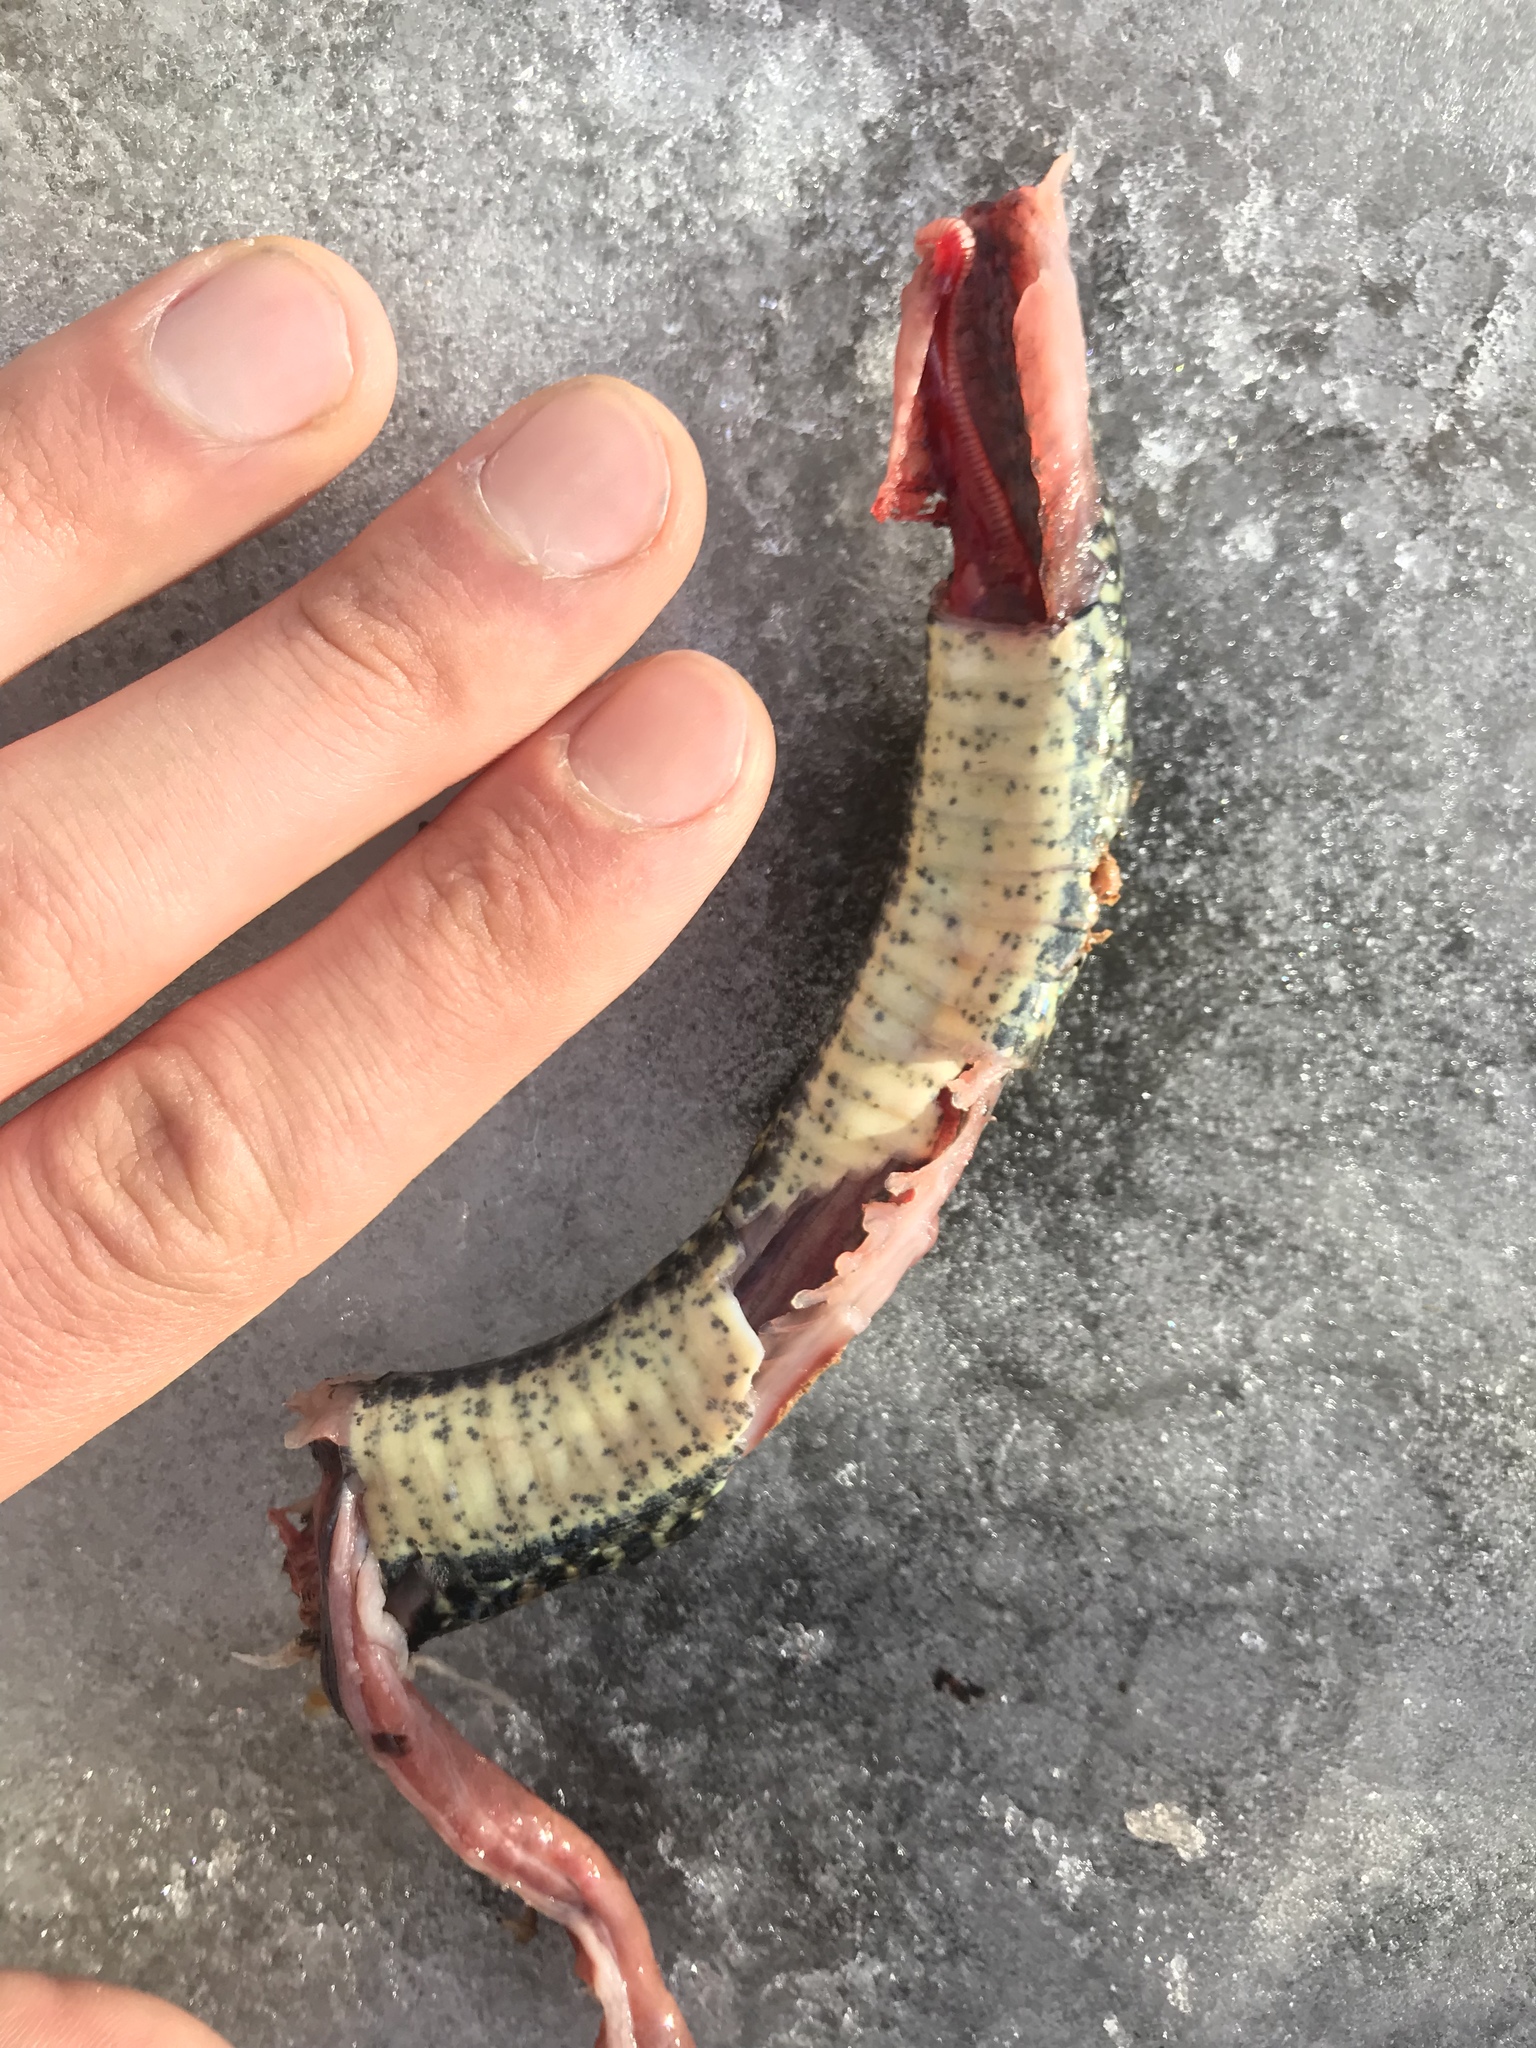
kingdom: Animalia
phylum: Chordata
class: Squamata
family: Colubridae
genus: Hierophis
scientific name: Hierophis viridiflavus
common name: Green whip snake
